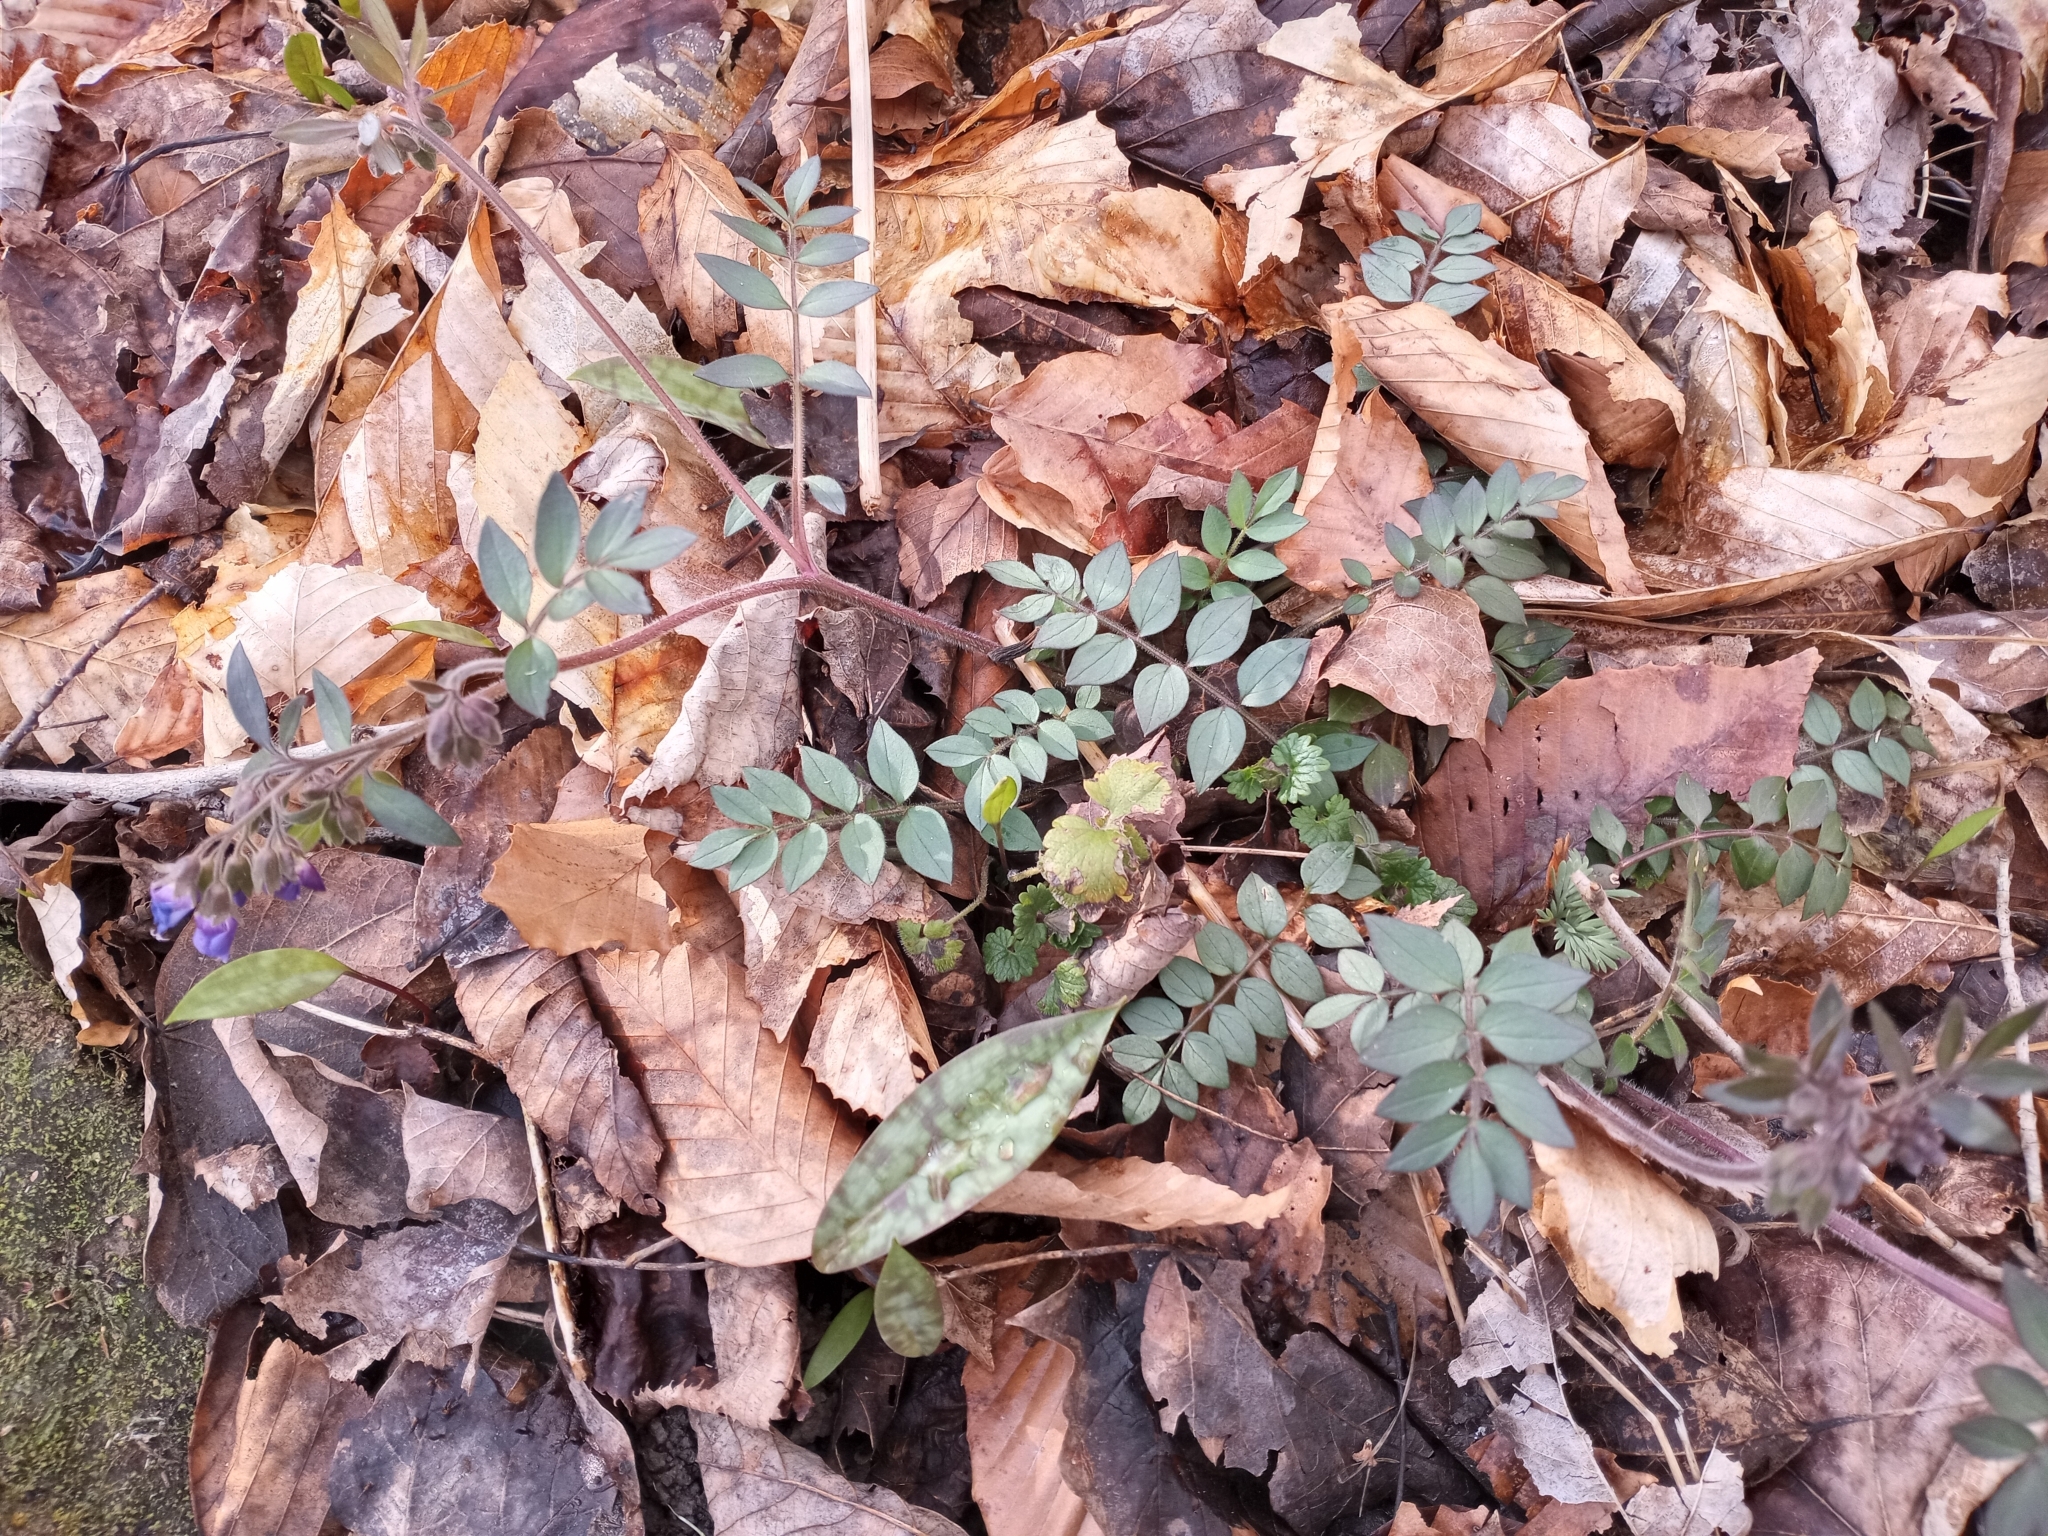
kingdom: Plantae
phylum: Tracheophyta
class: Magnoliopsida
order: Ericales
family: Polemoniaceae
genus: Polemonium
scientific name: Polemonium reptans
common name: Creeping jacob's-ladder
